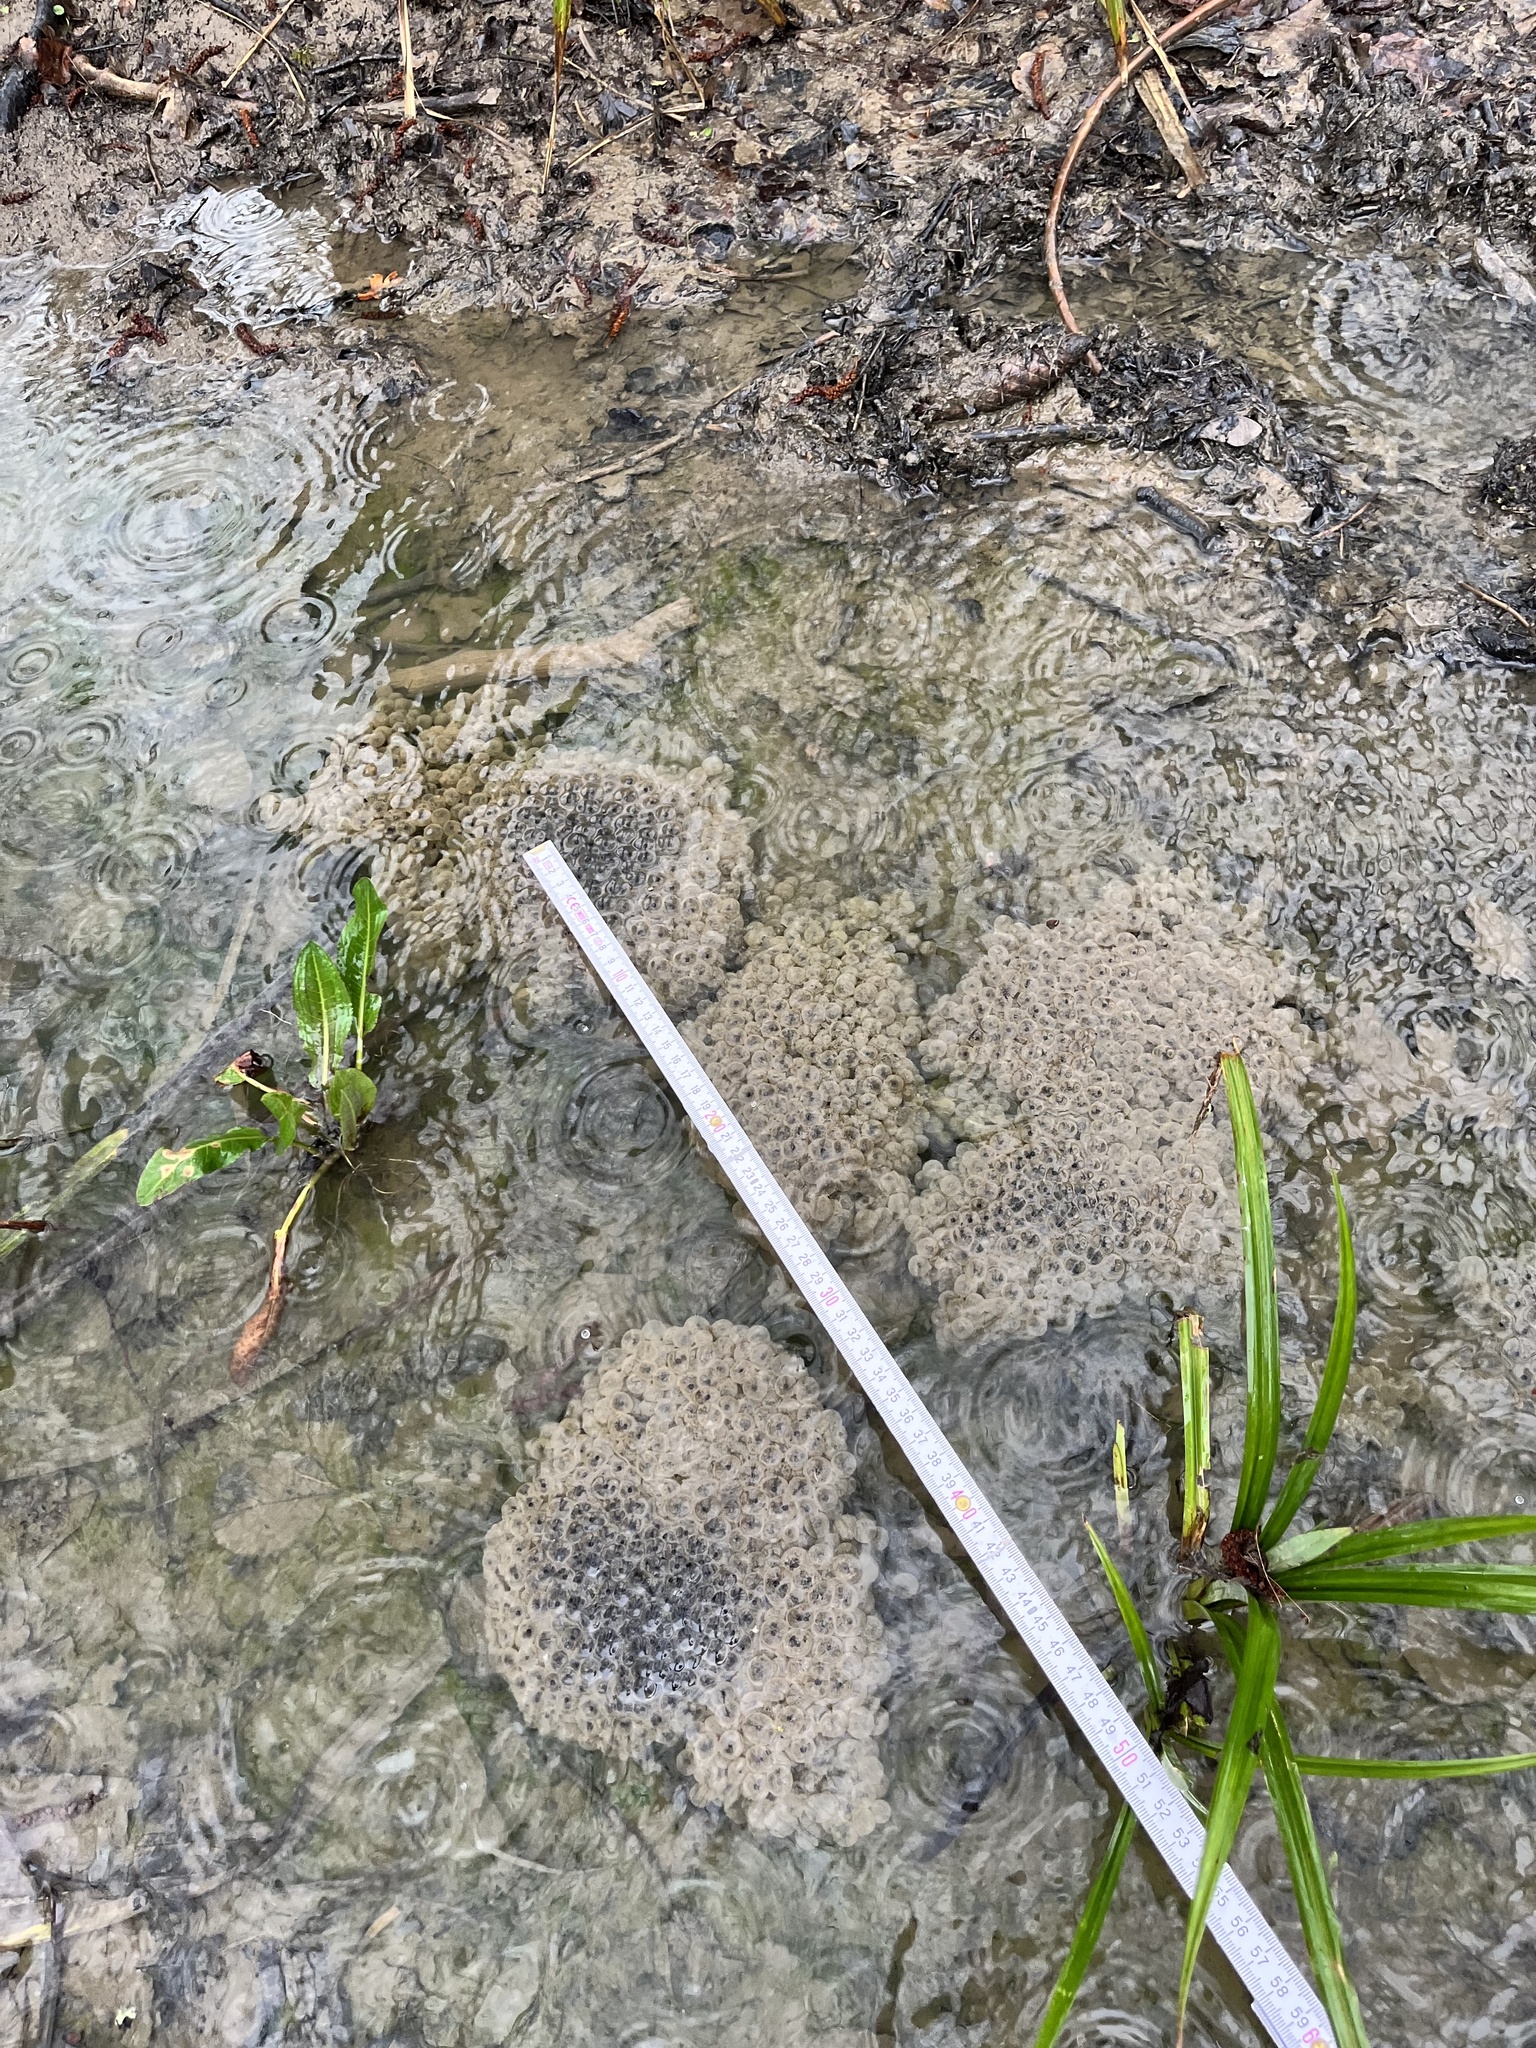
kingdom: Animalia
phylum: Chordata
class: Amphibia
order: Anura
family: Ranidae
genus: Rana
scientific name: Rana temporaria
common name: Common frog
